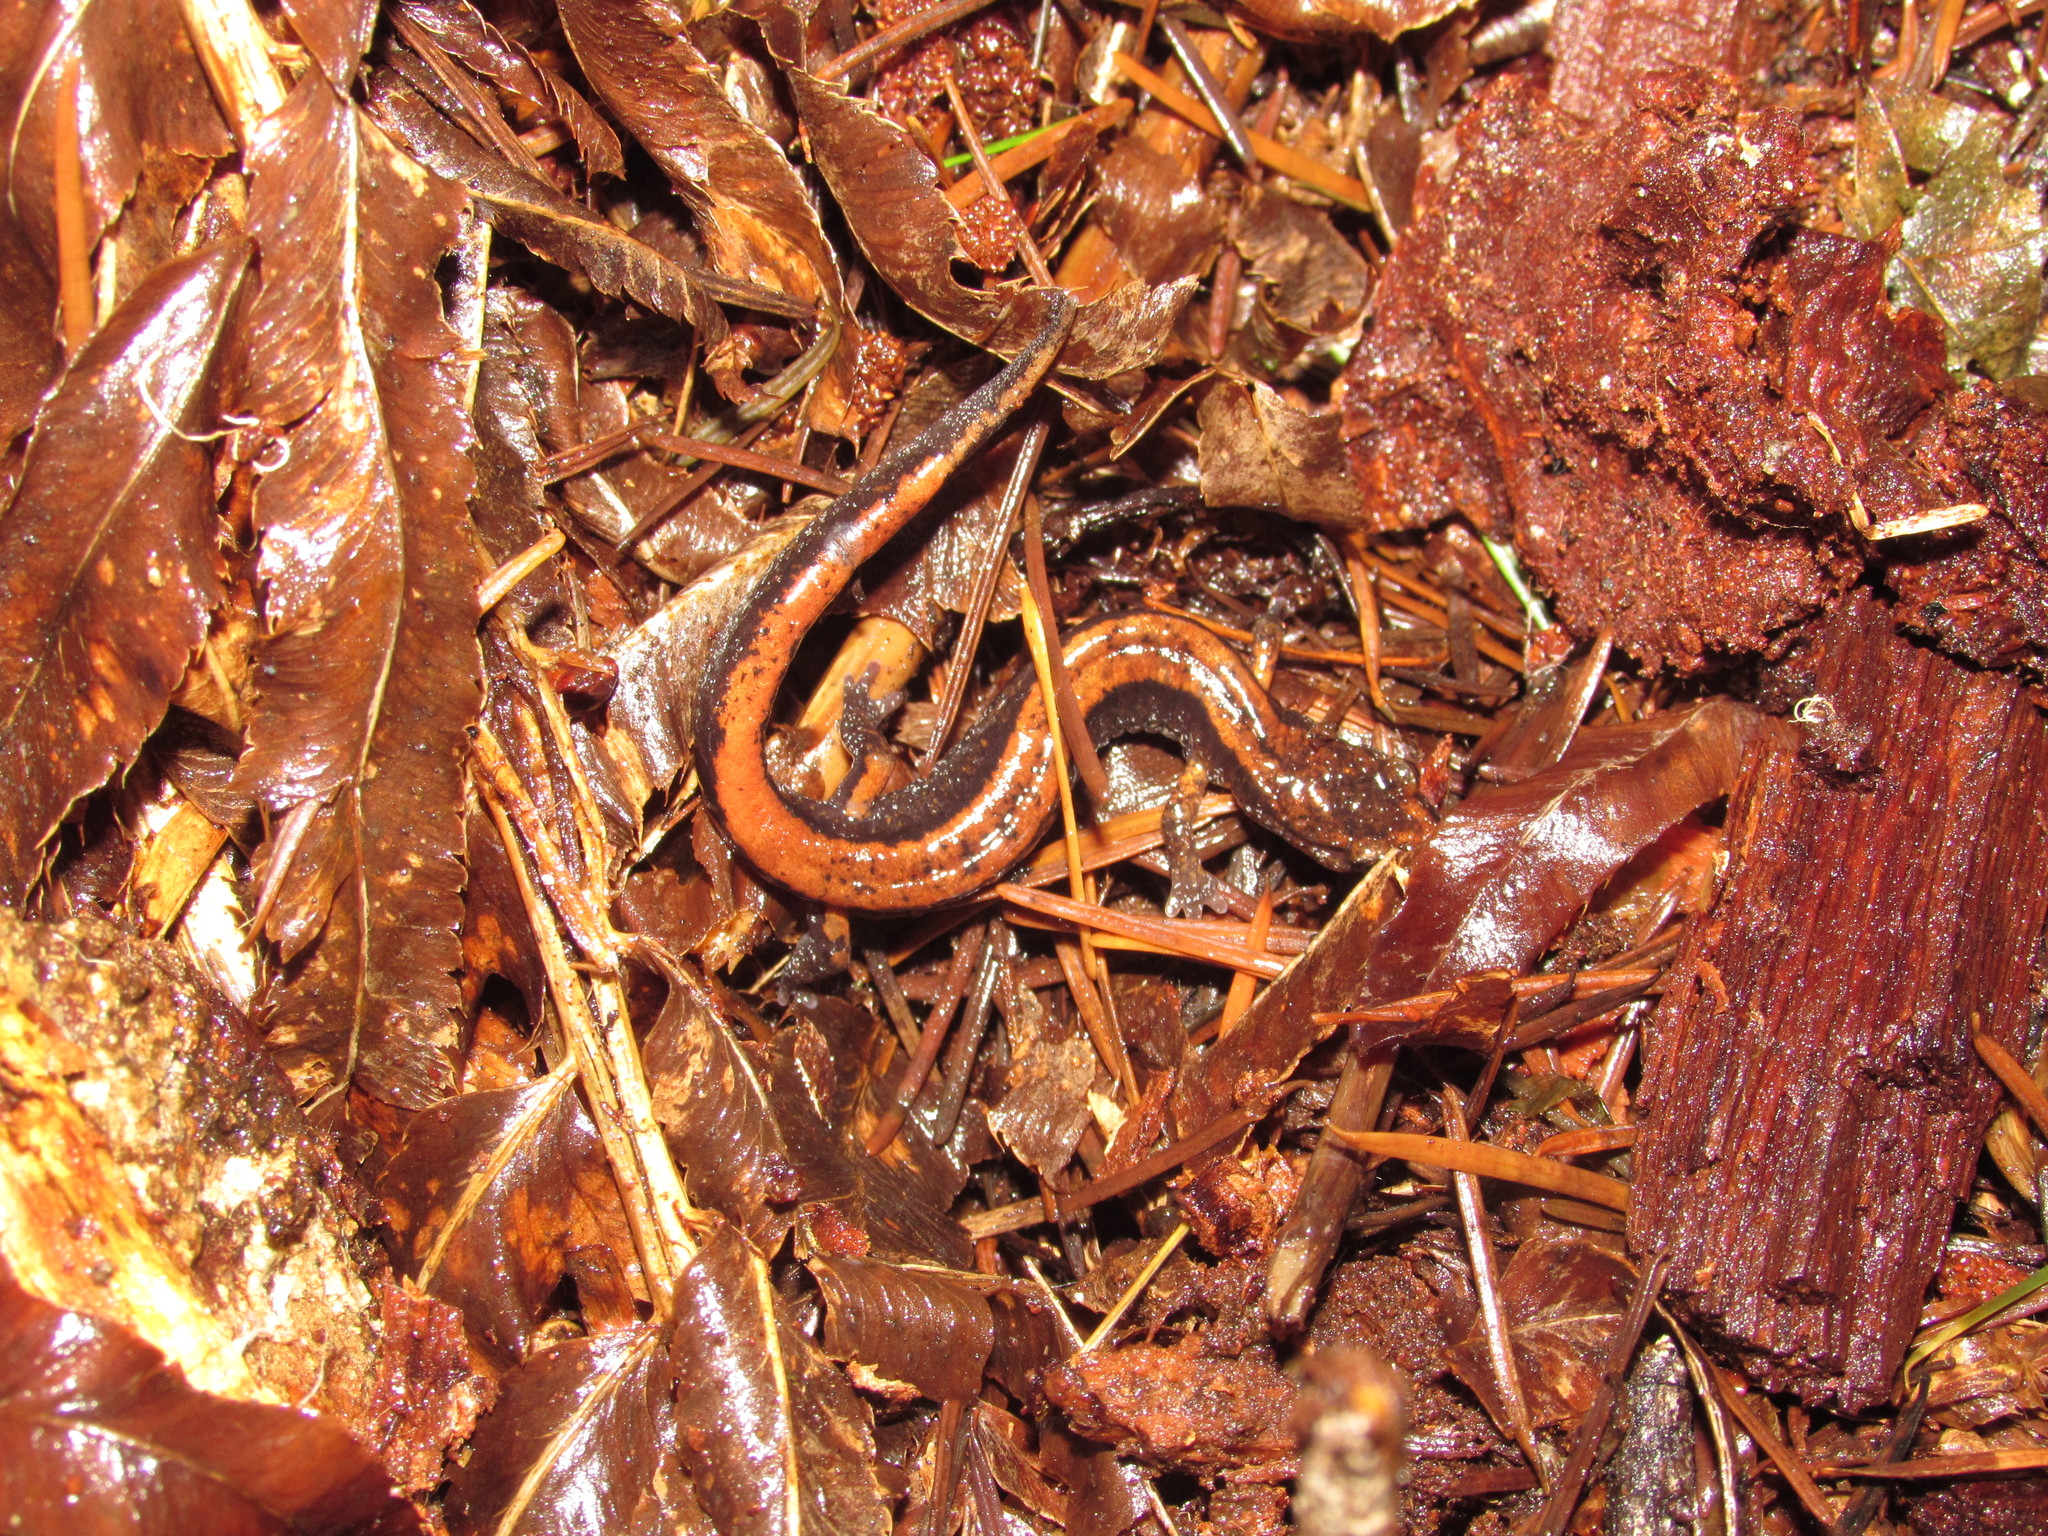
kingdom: Animalia
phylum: Chordata
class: Amphibia
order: Caudata
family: Plethodontidae
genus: Plethodon
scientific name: Plethodon vehiculum
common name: Western red-backed salamander
